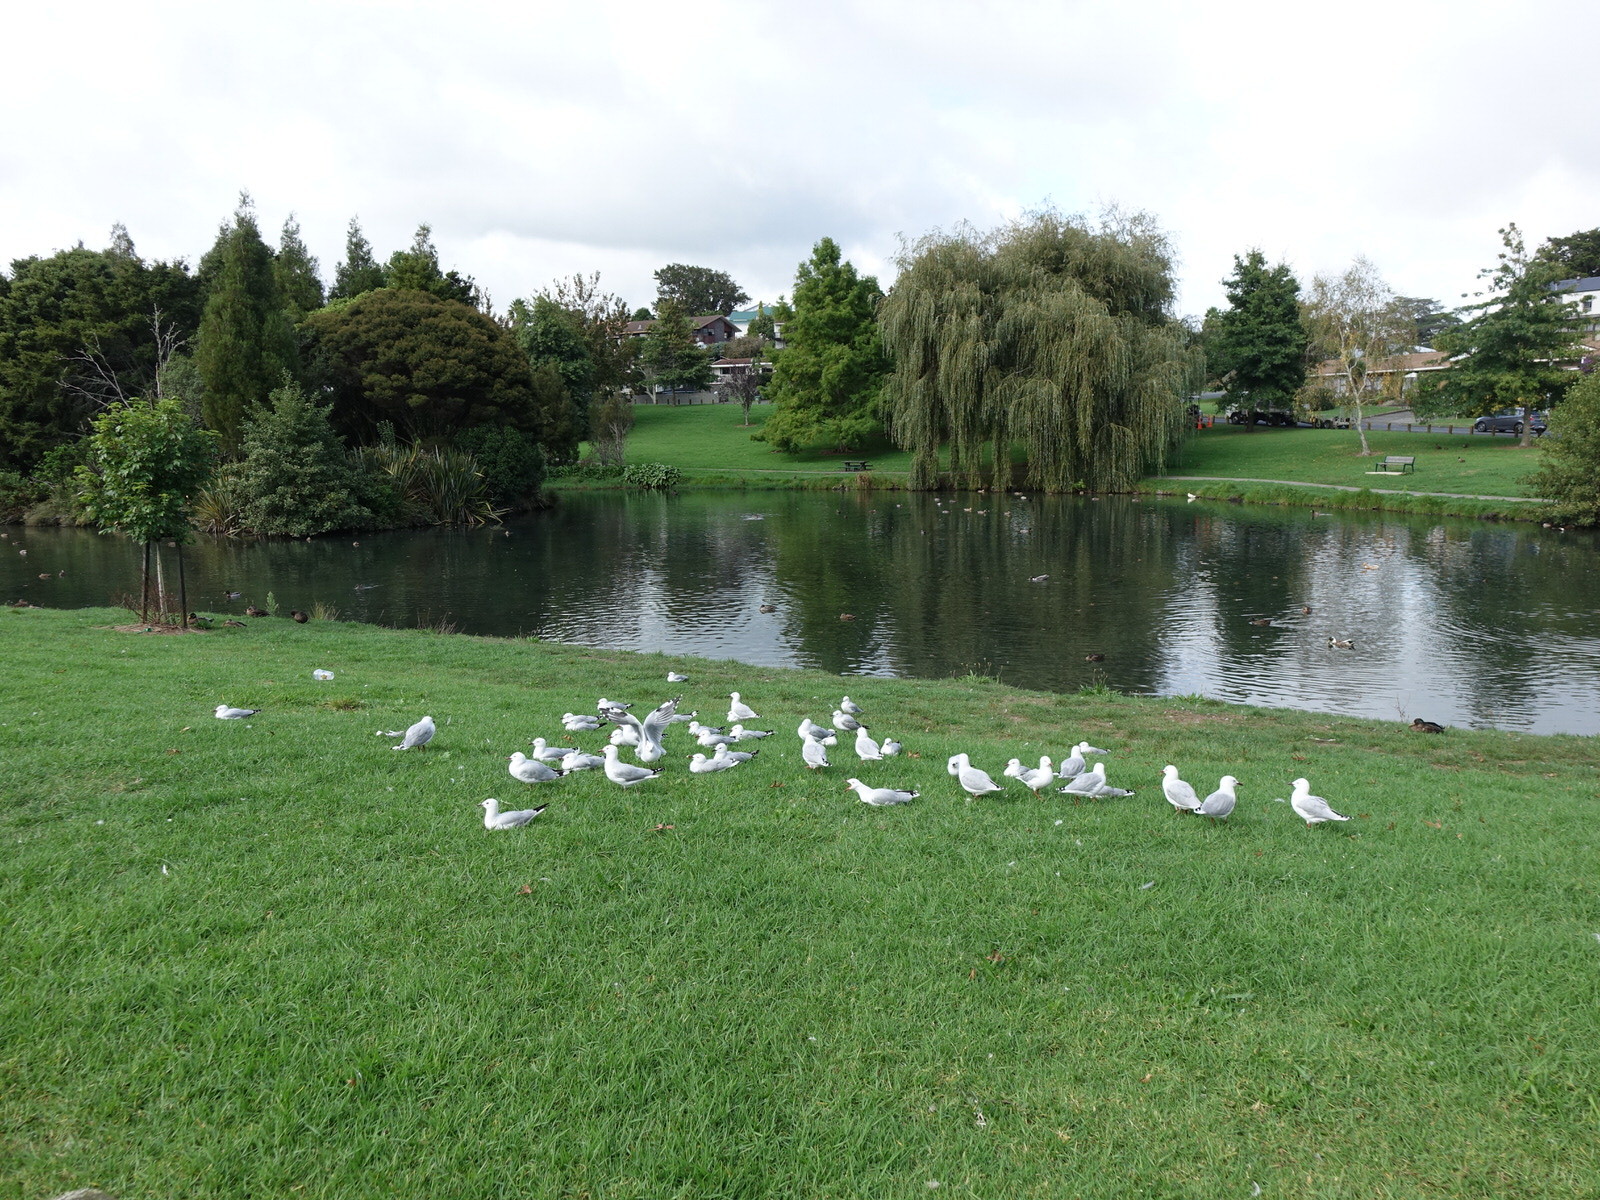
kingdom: Animalia
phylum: Chordata
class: Aves
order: Charadriiformes
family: Laridae
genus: Chroicocephalus
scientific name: Chroicocephalus novaehollandiae
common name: Silver gull
